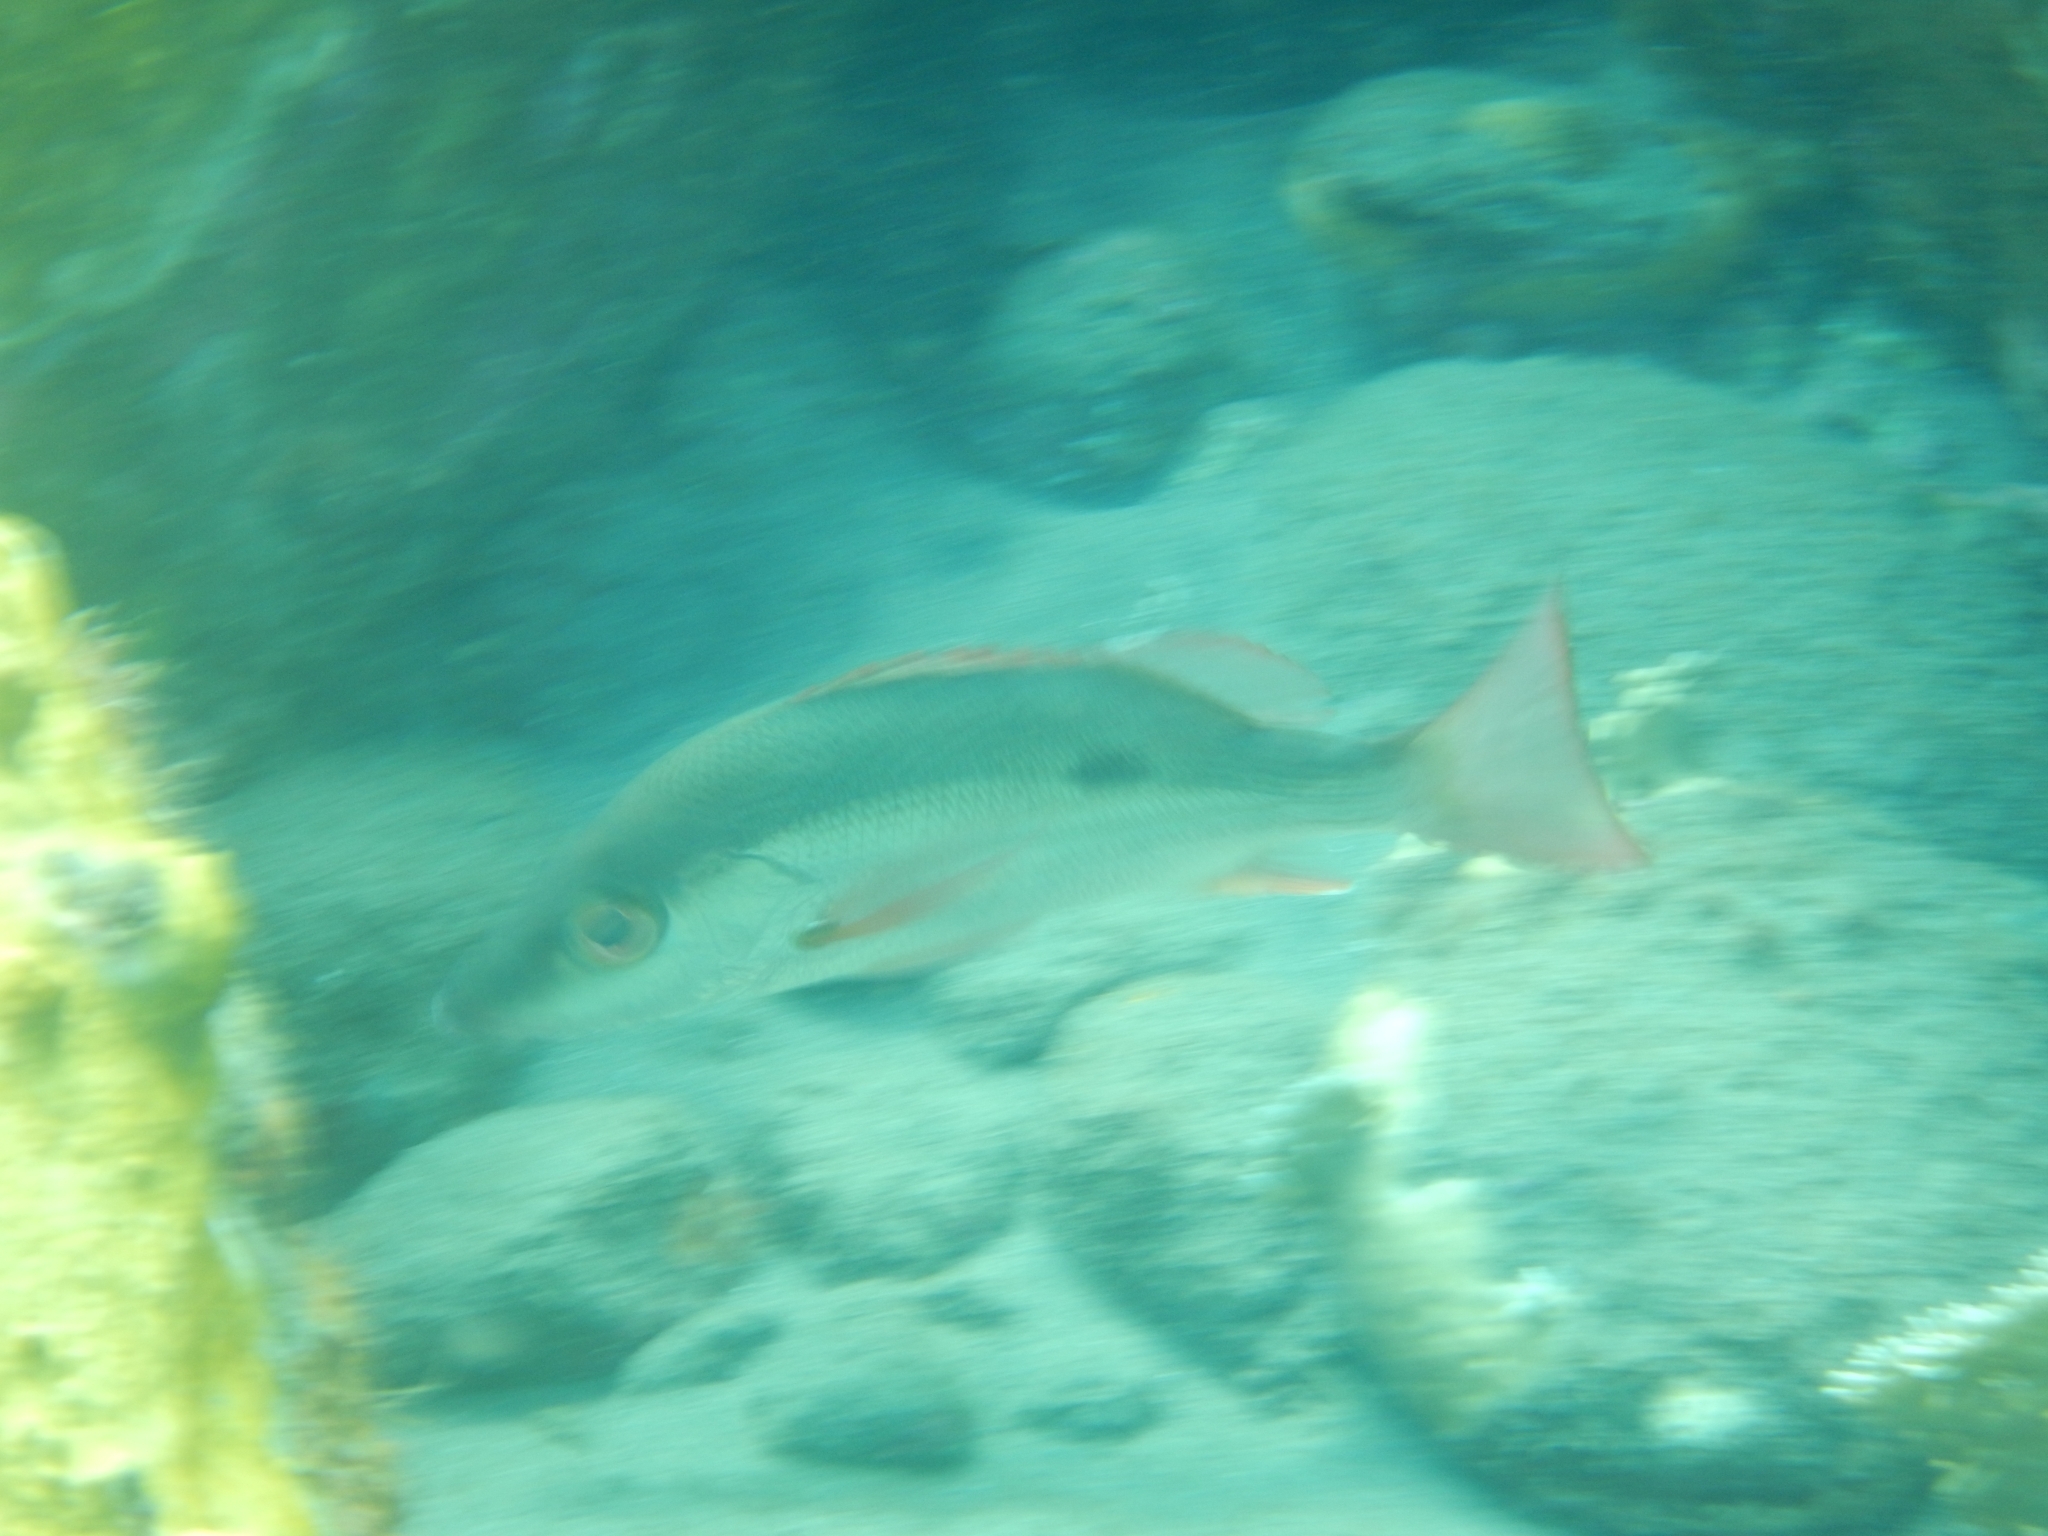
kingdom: Animalia
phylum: Chordata
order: Perciformes
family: Lutjanidae
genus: Lutjanus
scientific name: Lutjanus mahogoni
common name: Spot snapper
